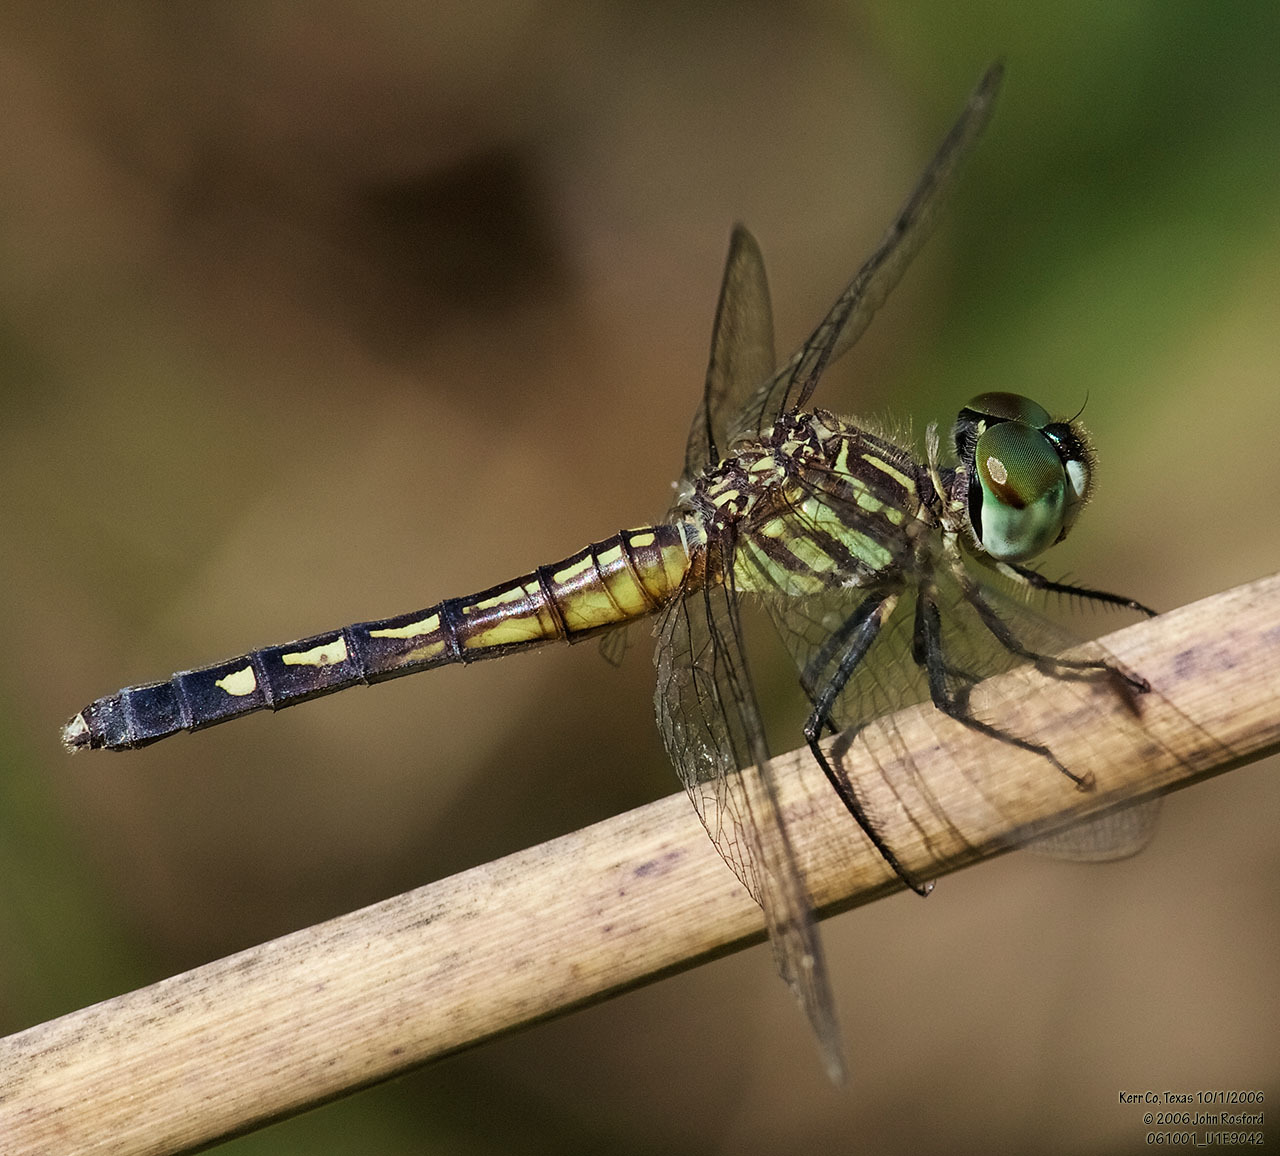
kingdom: Animalia
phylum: Arthropoda
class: Insecta
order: Odonata
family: Libellulidae
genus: Pachydiplax
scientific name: Pachydiplax longipennis
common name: Blue dasher
